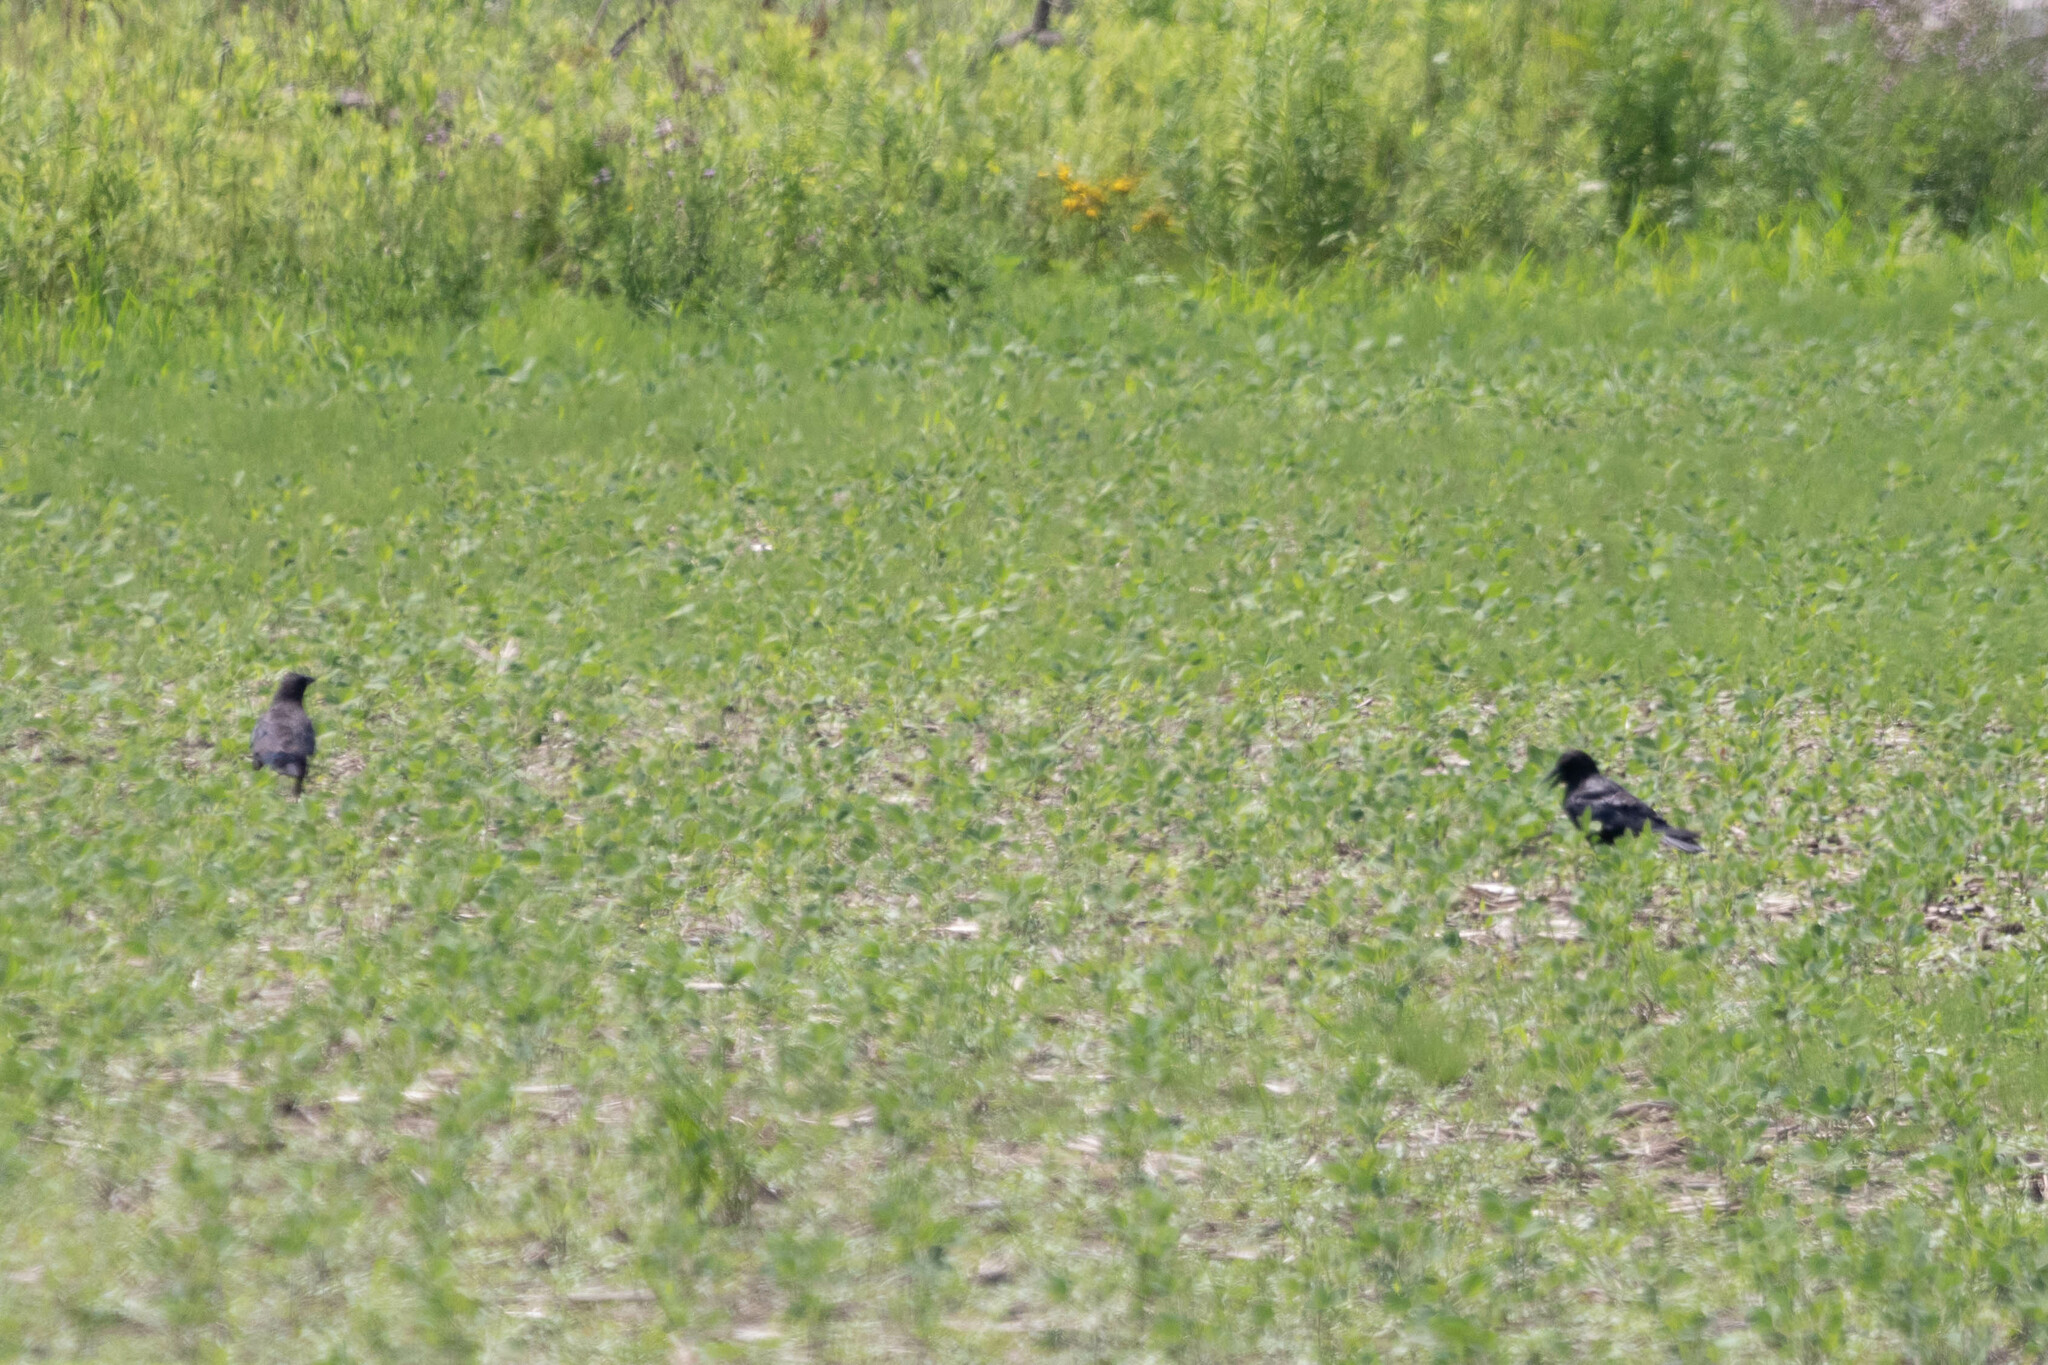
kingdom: Animalia
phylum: Chordata
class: Aves
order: Passeriformes
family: Corvidae
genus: Corvus
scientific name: Corvus brachyrhynchos
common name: American crow
